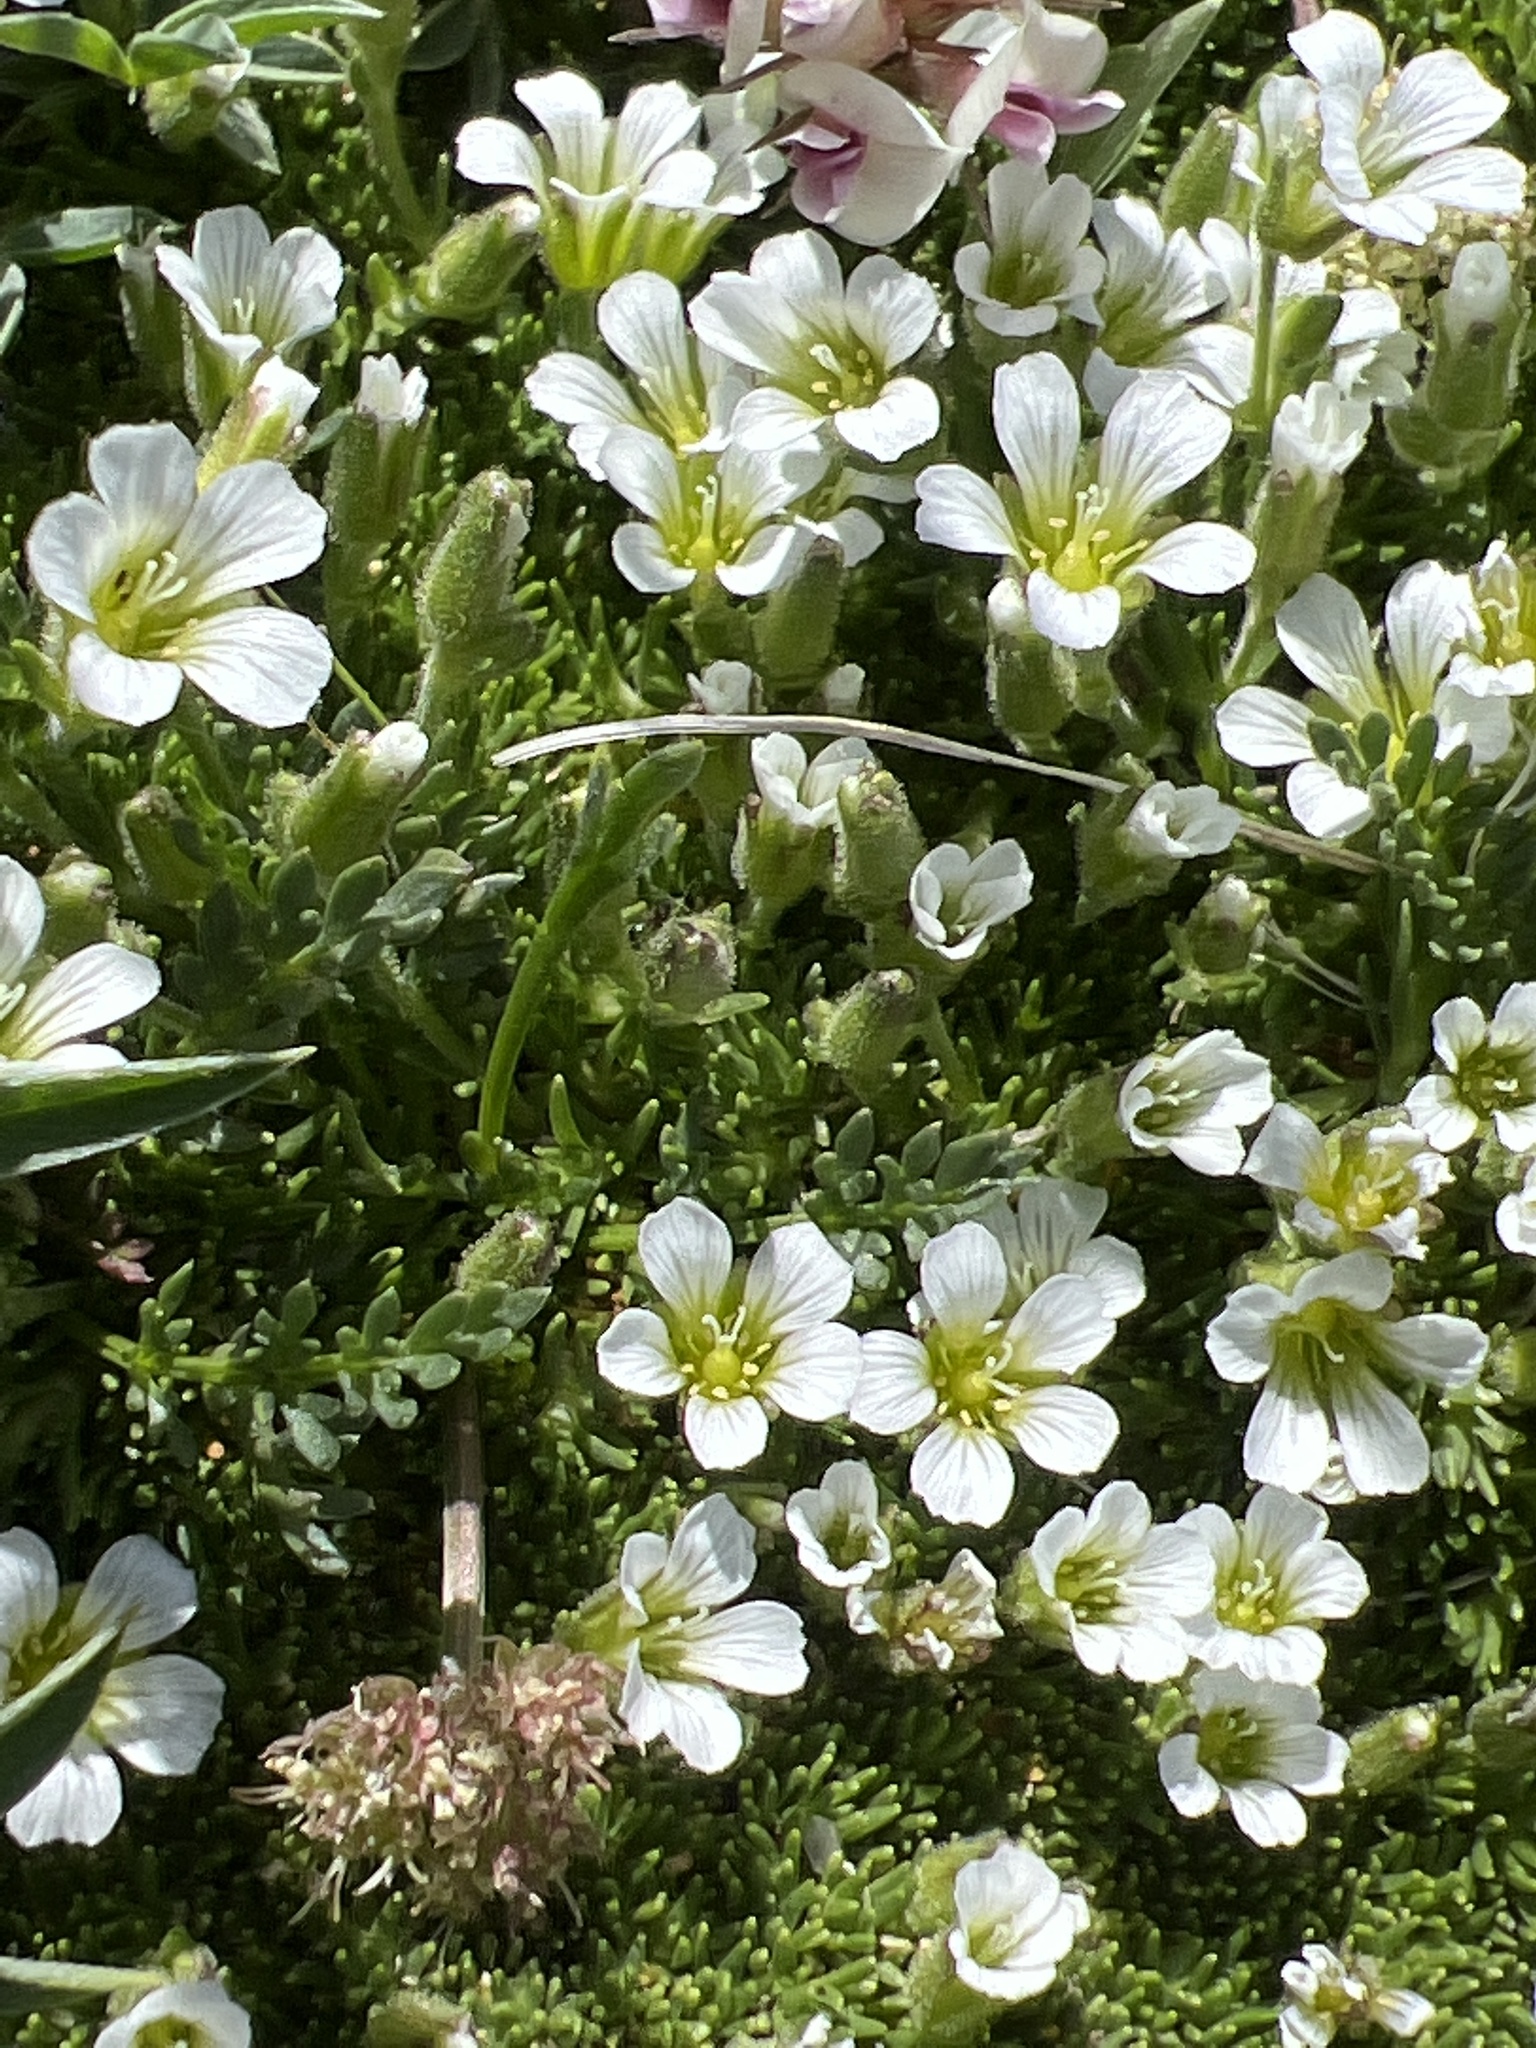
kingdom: Plantae
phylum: Tracheophyta
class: Magnoliopsida
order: Caryophyllales
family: Caryophyllaceae
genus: Cherleria
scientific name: Cherleria obtusiloba
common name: Alpine stitchwort
